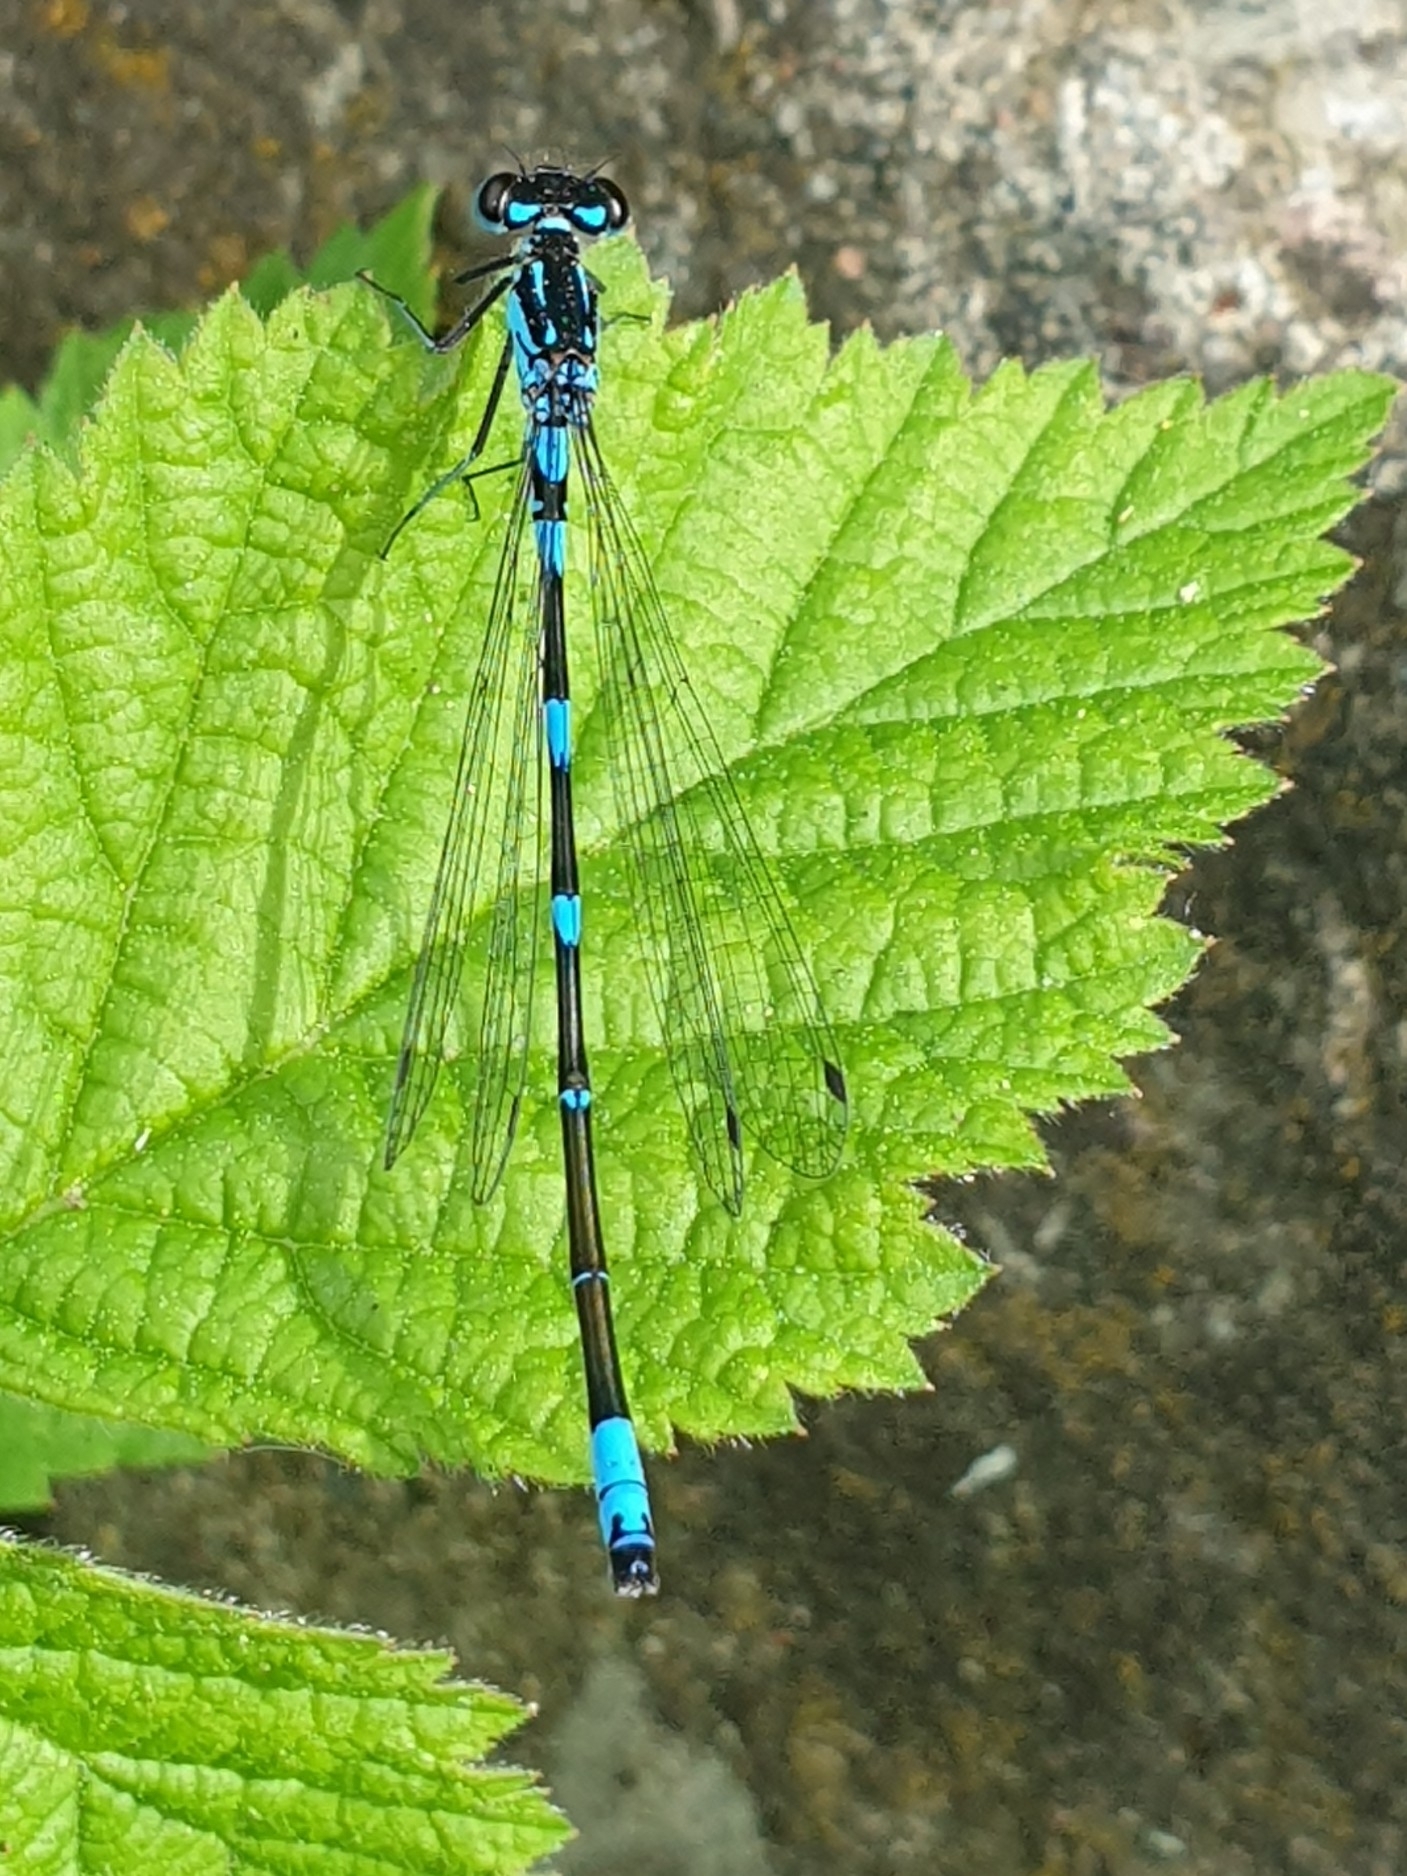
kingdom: Animalia
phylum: Arthropoda
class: Insecta
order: Odonata
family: Coenagrionidae
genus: Coenagrion
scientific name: Coenagrion pulchellum
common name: Variable bluet
